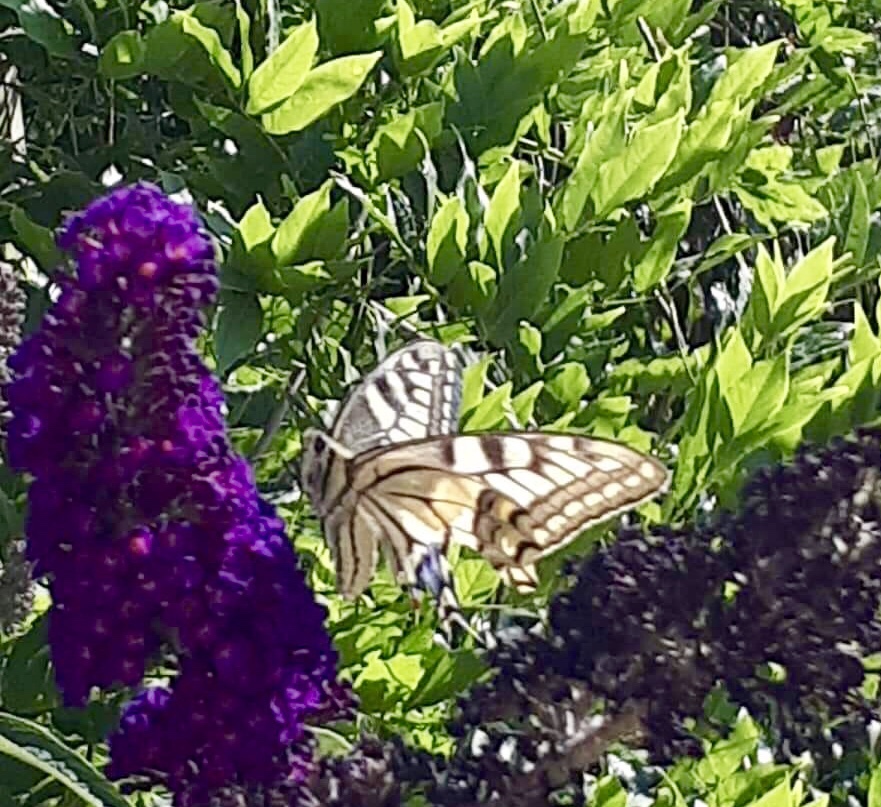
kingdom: Animalia
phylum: Arthropoda
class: Insecta
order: Lepidoptera
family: Papilionidae
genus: Papilio
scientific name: Papilio machaon
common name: Swallowtail
